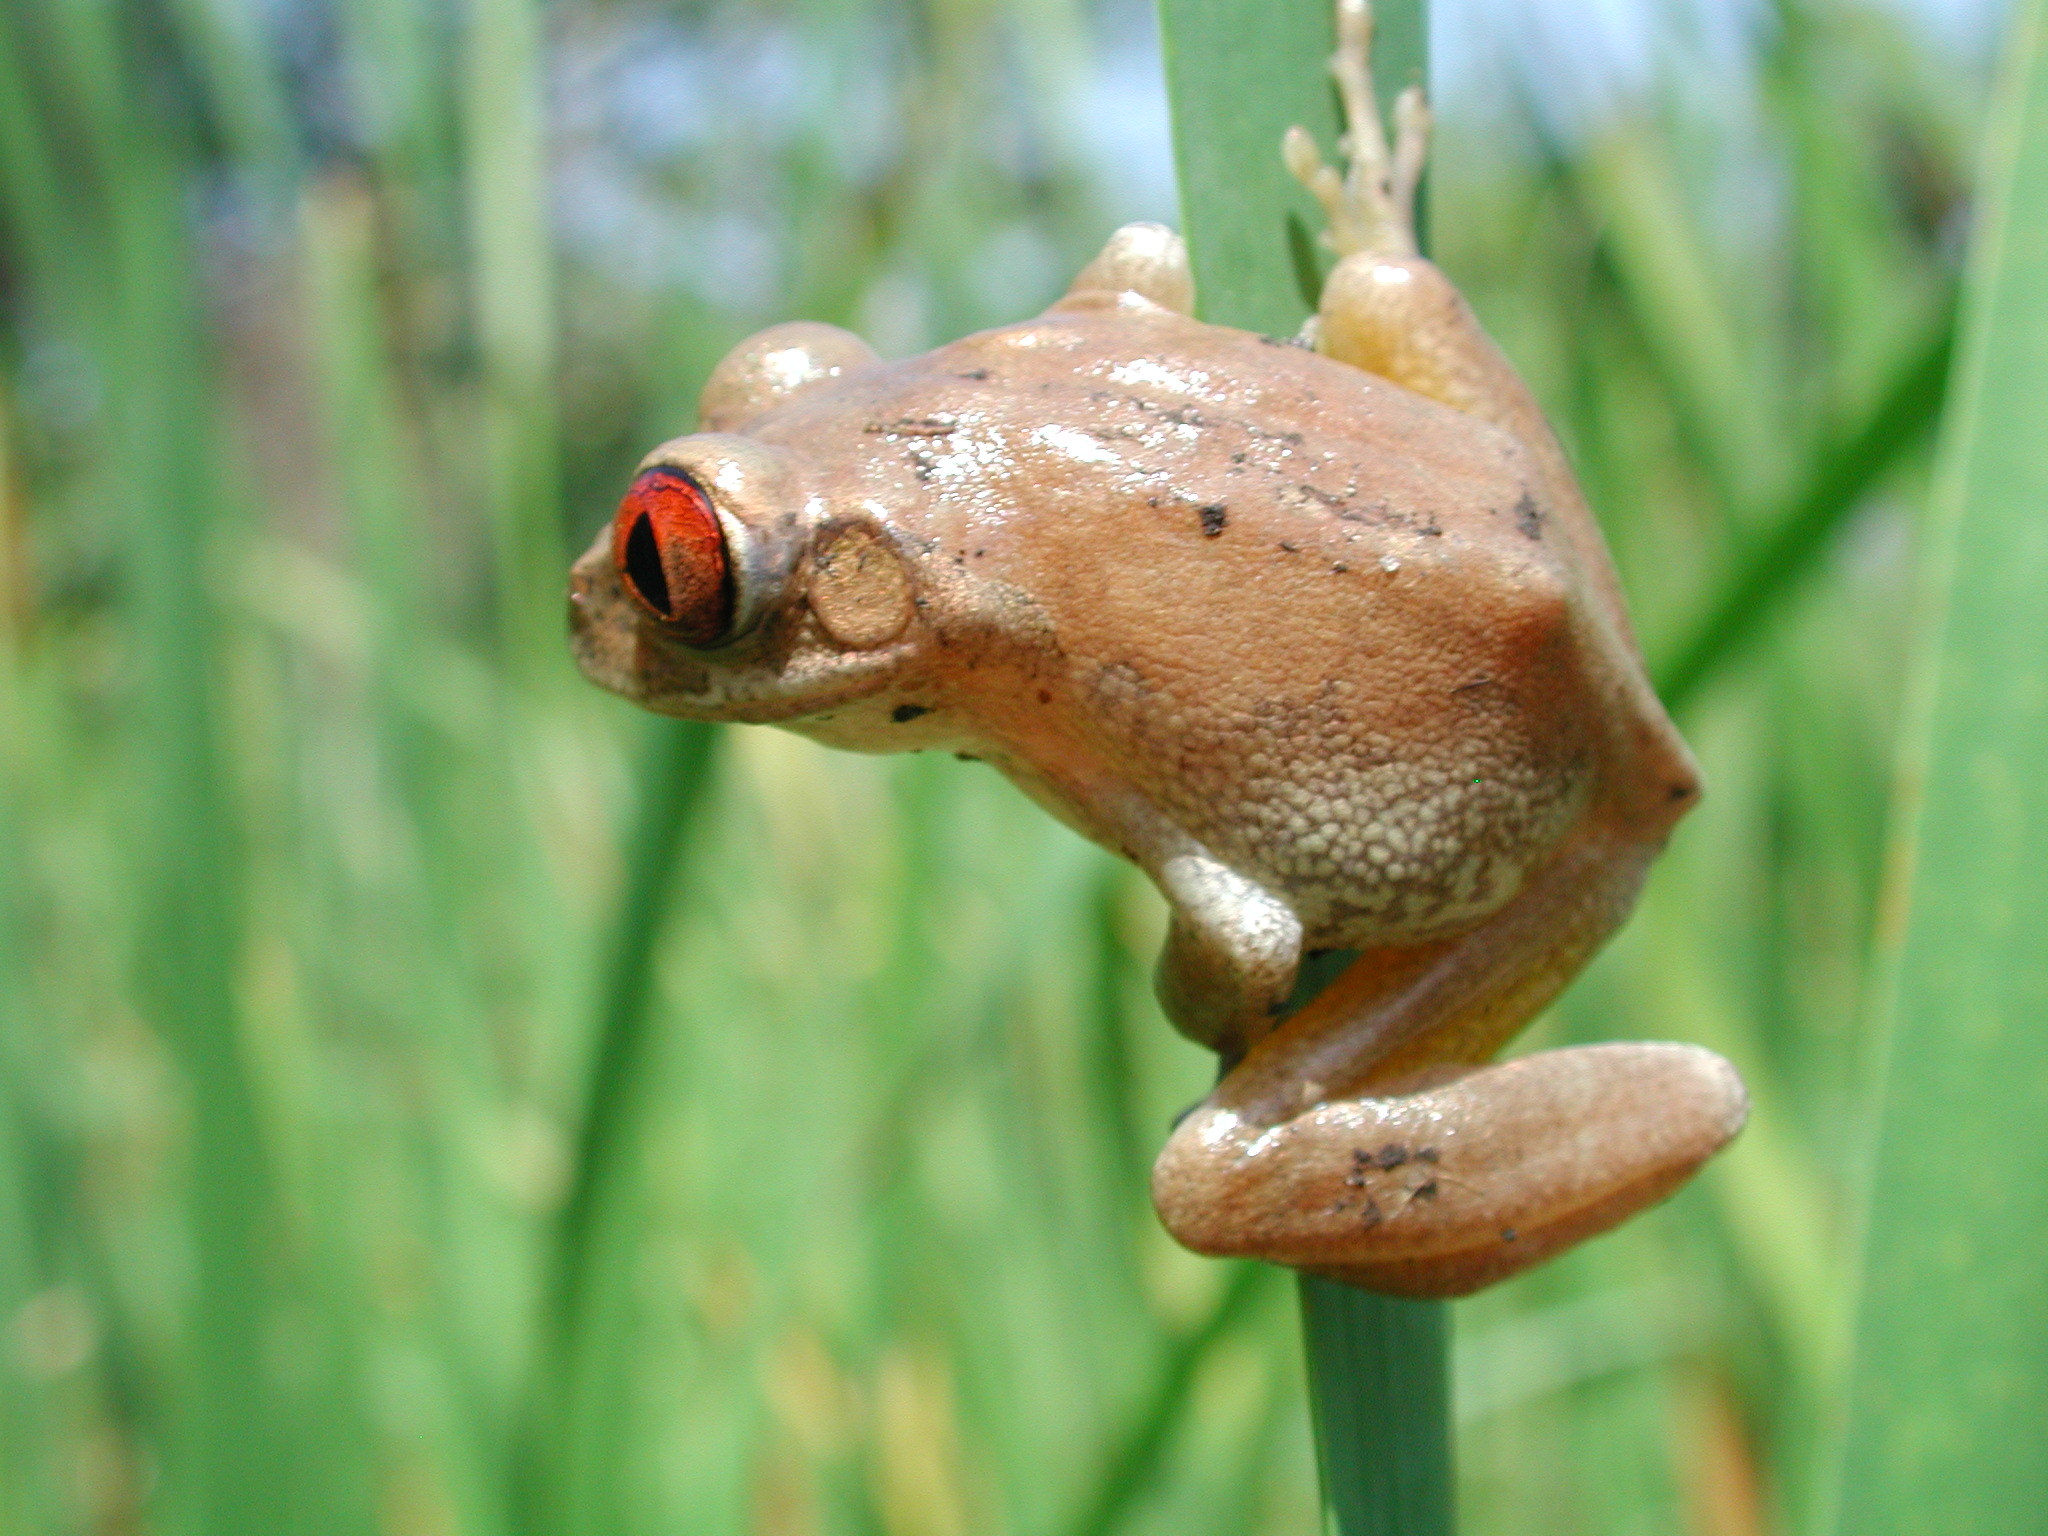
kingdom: Animalia
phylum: Chordata
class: Amphibia
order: Anura
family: Arthroleptidae
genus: Leptopelis
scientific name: Leptopelis natalensis
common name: Natal tree frog
